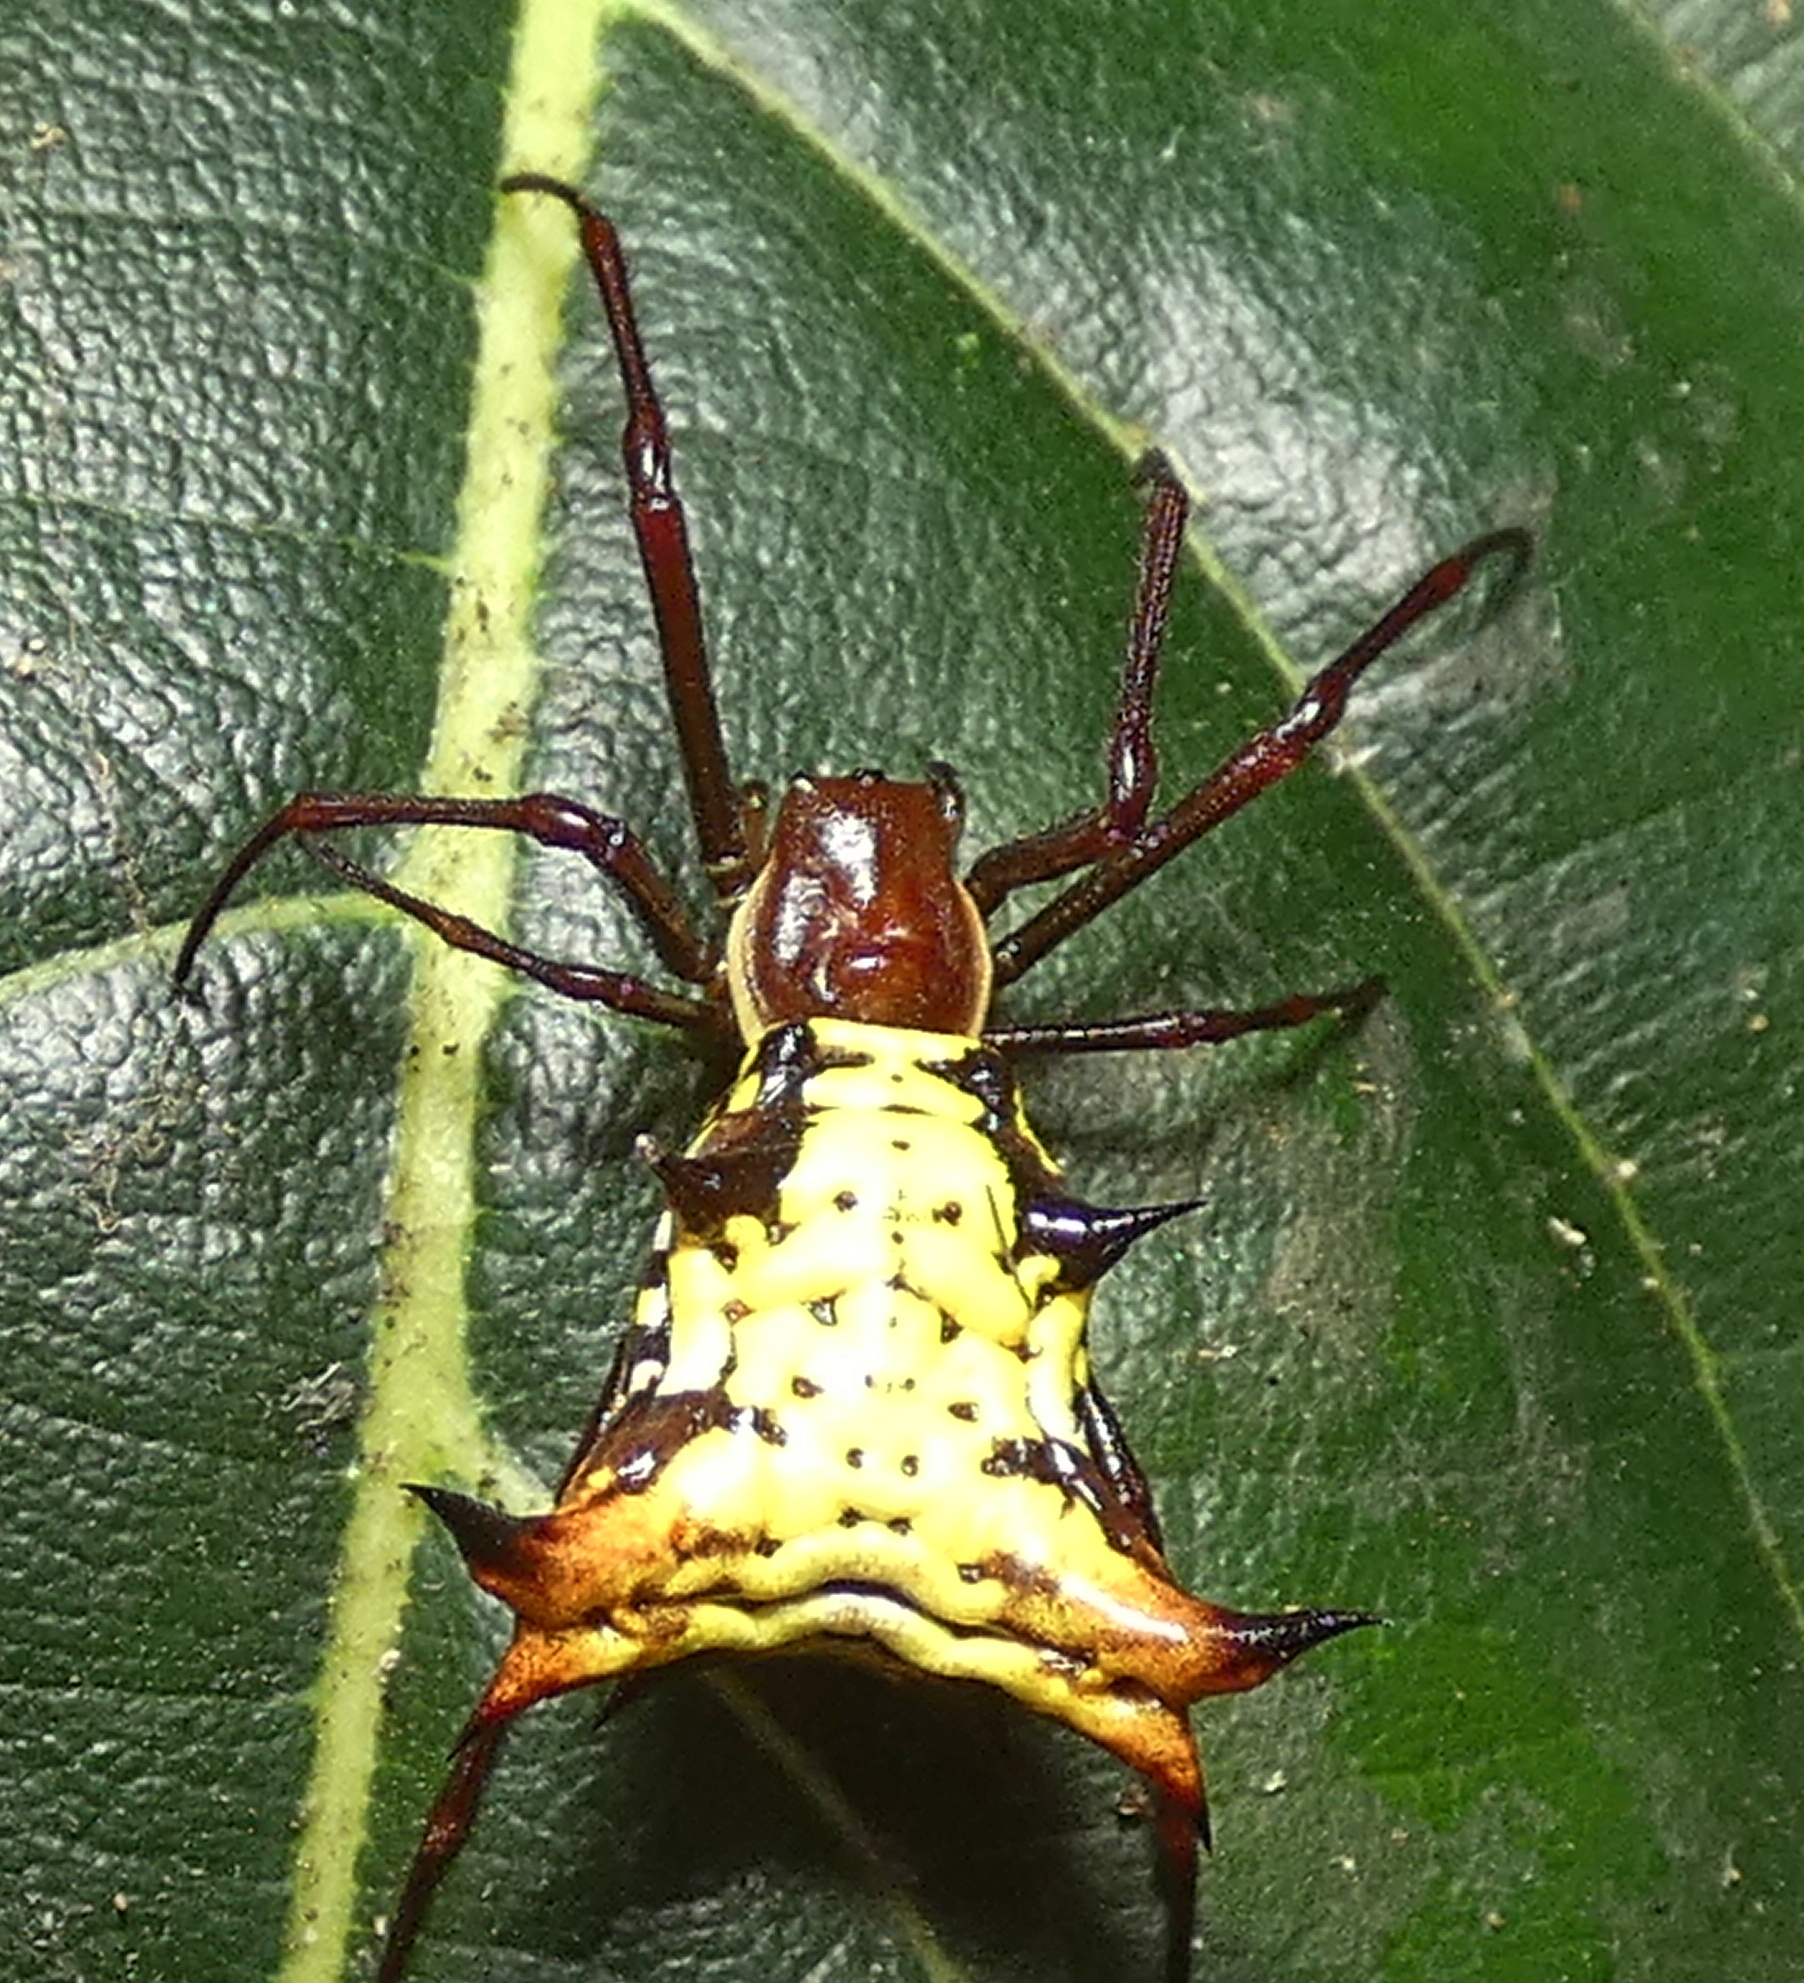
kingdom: Animalia
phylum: Arthropoda
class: Arachnida
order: Araneae
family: Araneidae
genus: Micrathena
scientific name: Micrathena fissispina
